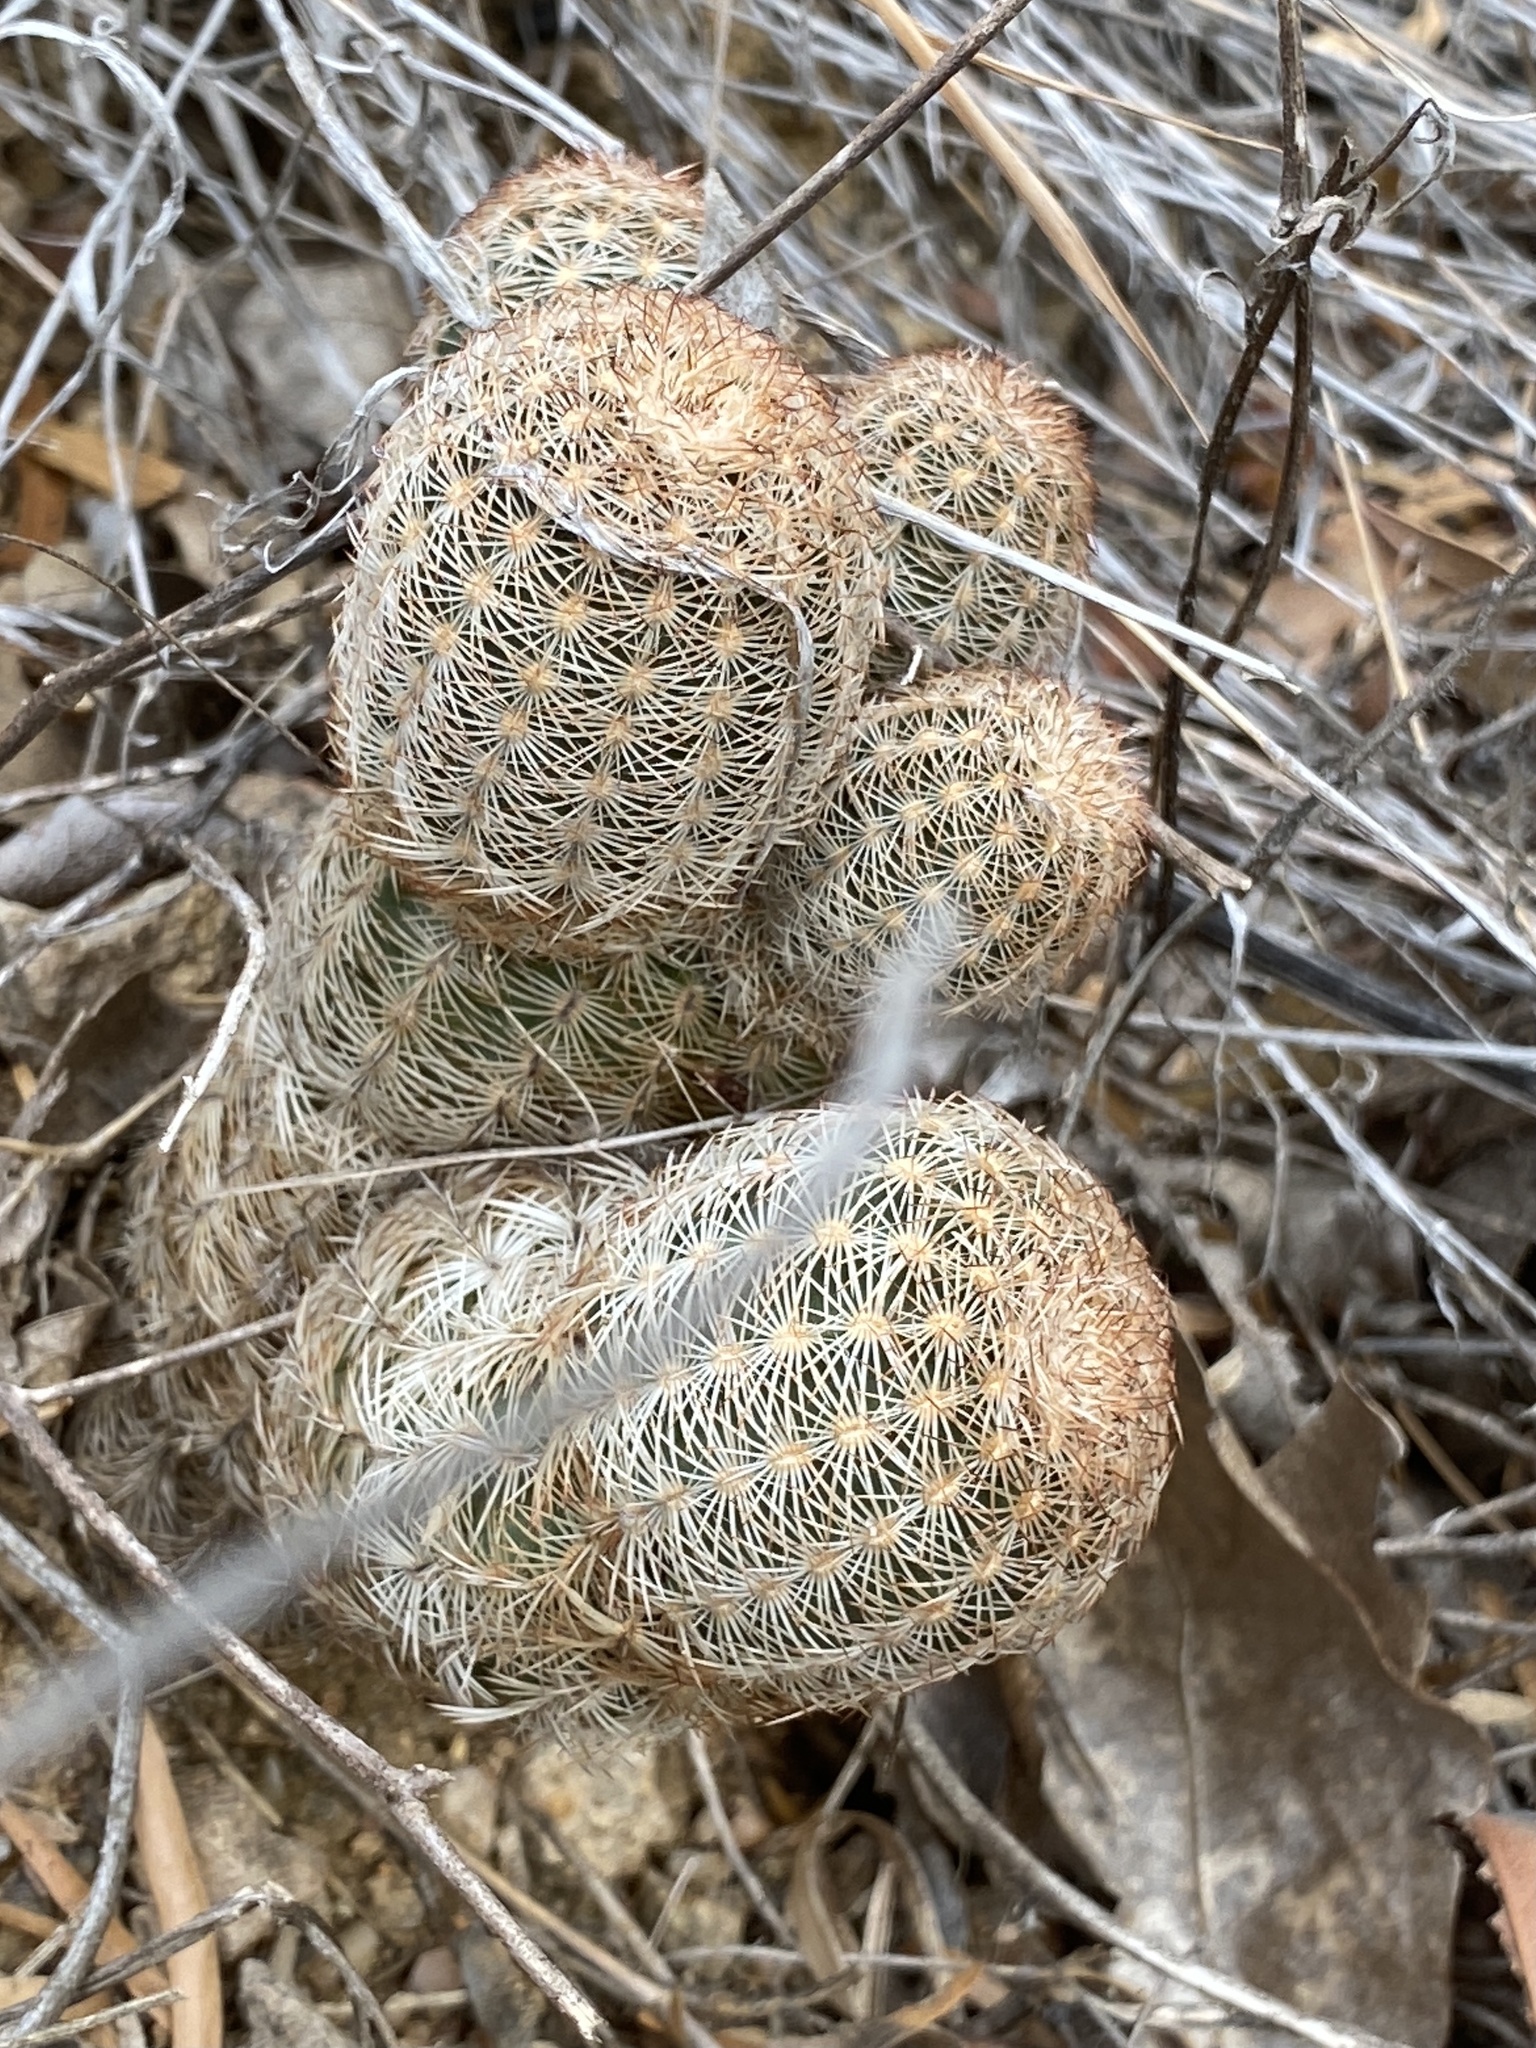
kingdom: Plantae
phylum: Tracheophyta
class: Magnoliopsida
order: Caryophyllales
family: Cactaceae
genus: Echinocereus
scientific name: Echinocereus reichenbachii
